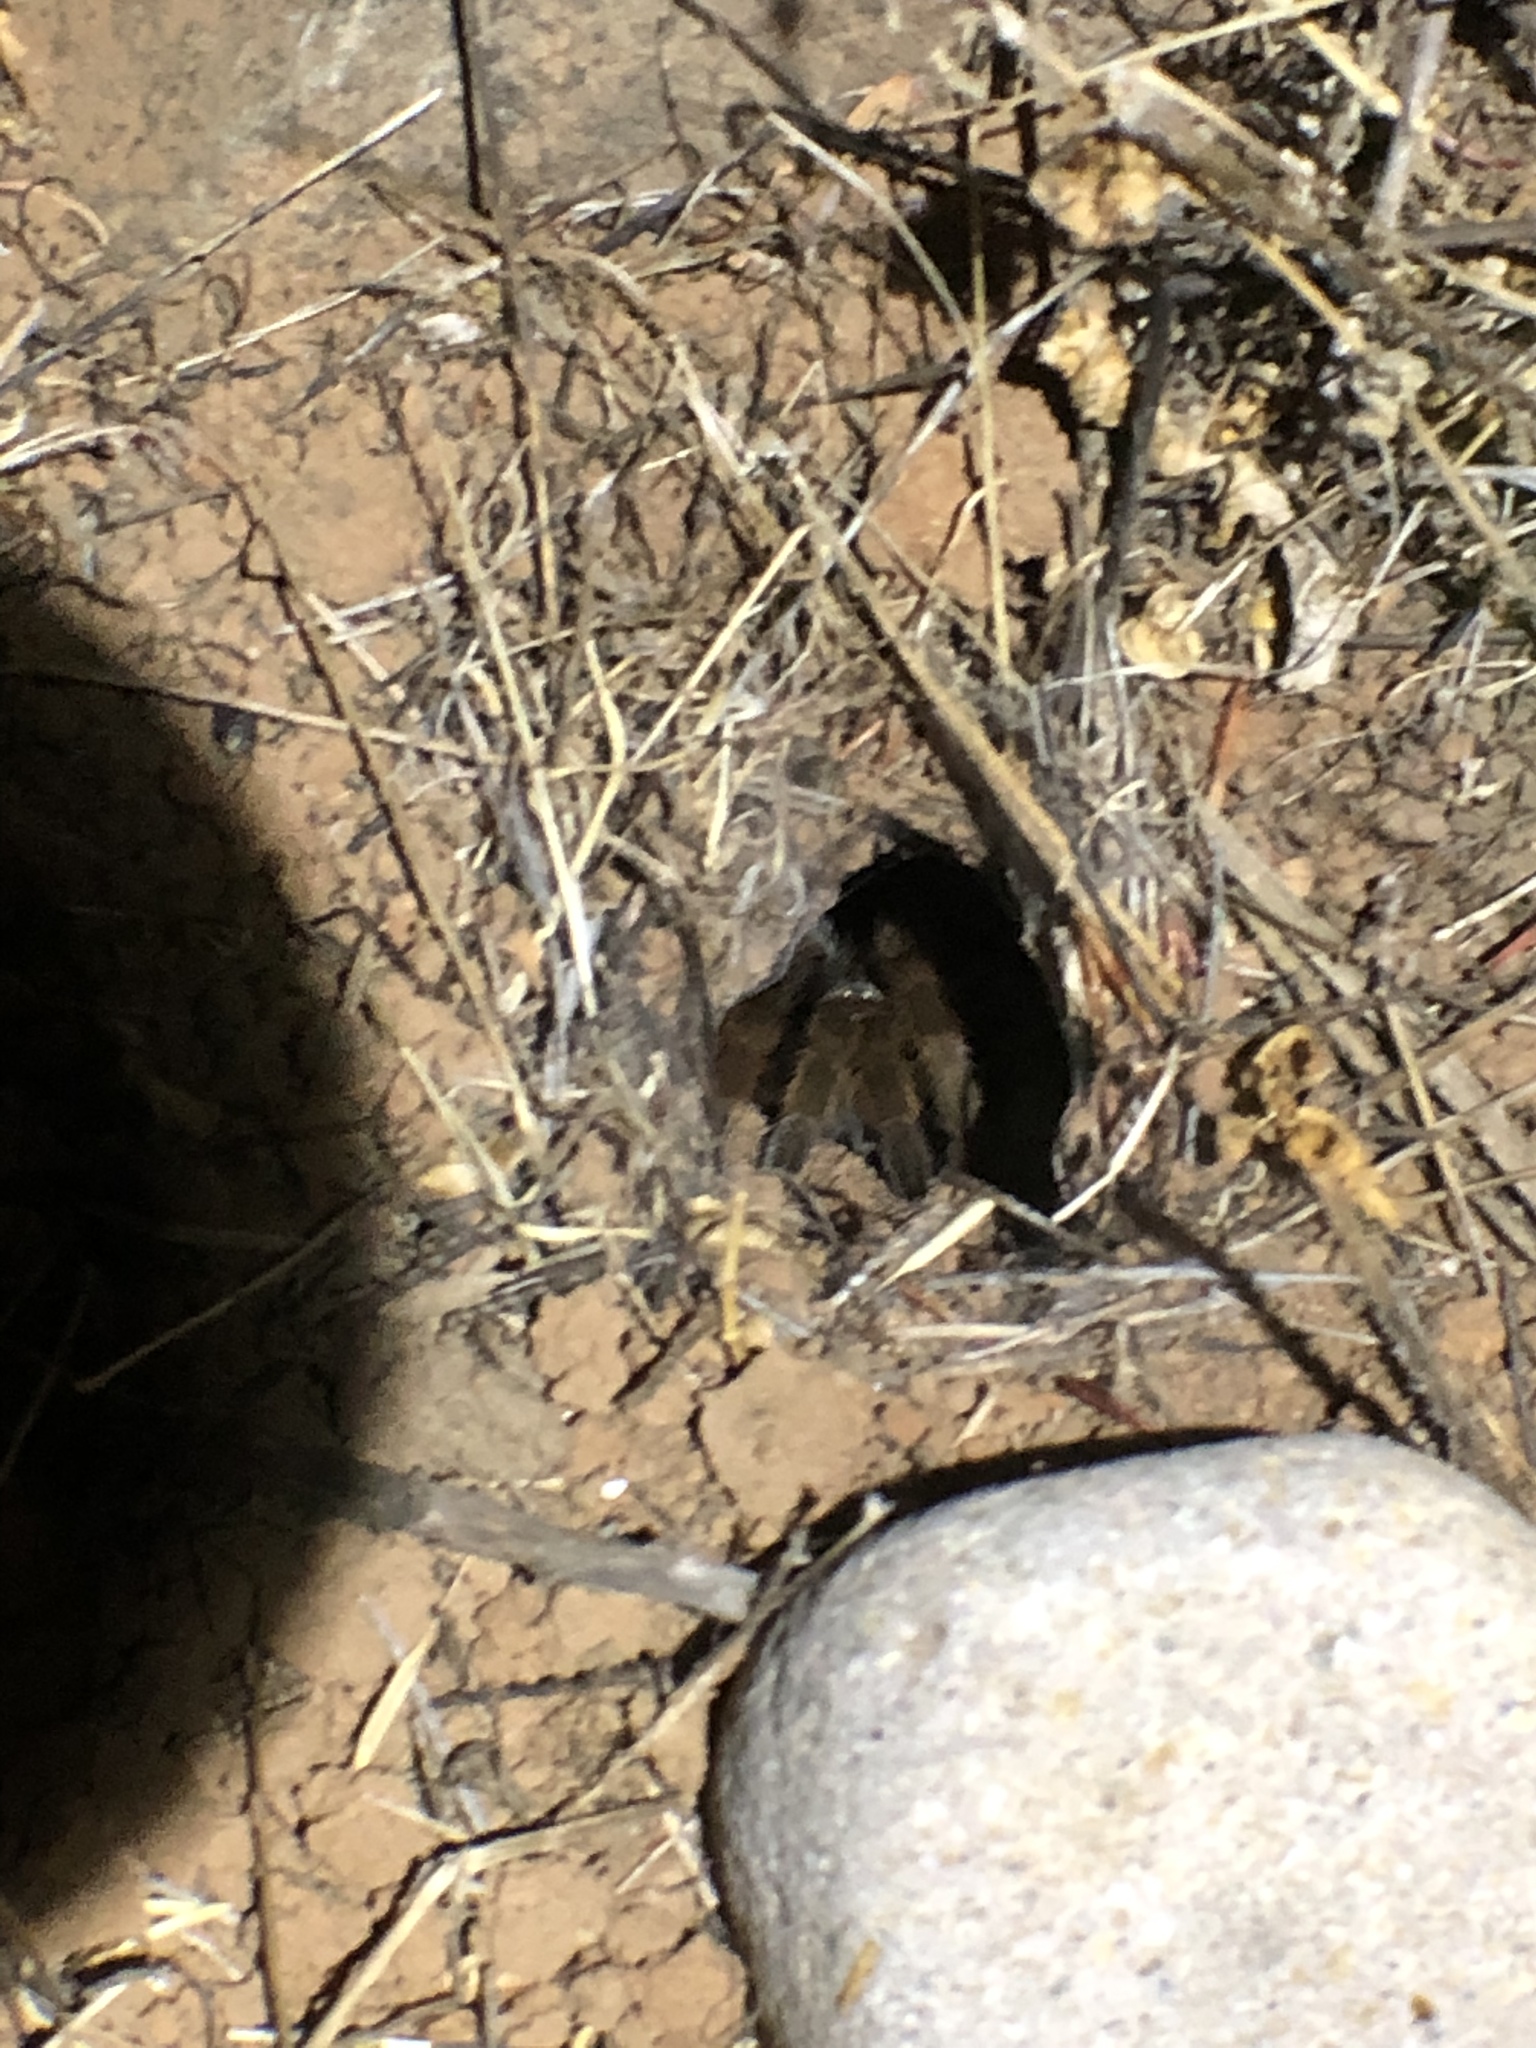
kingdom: Animalia
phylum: Arthropoda
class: Arachnida
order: Araneae
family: Theraphosidae
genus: Aphonopelma
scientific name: Aphonopelma eutylenum
